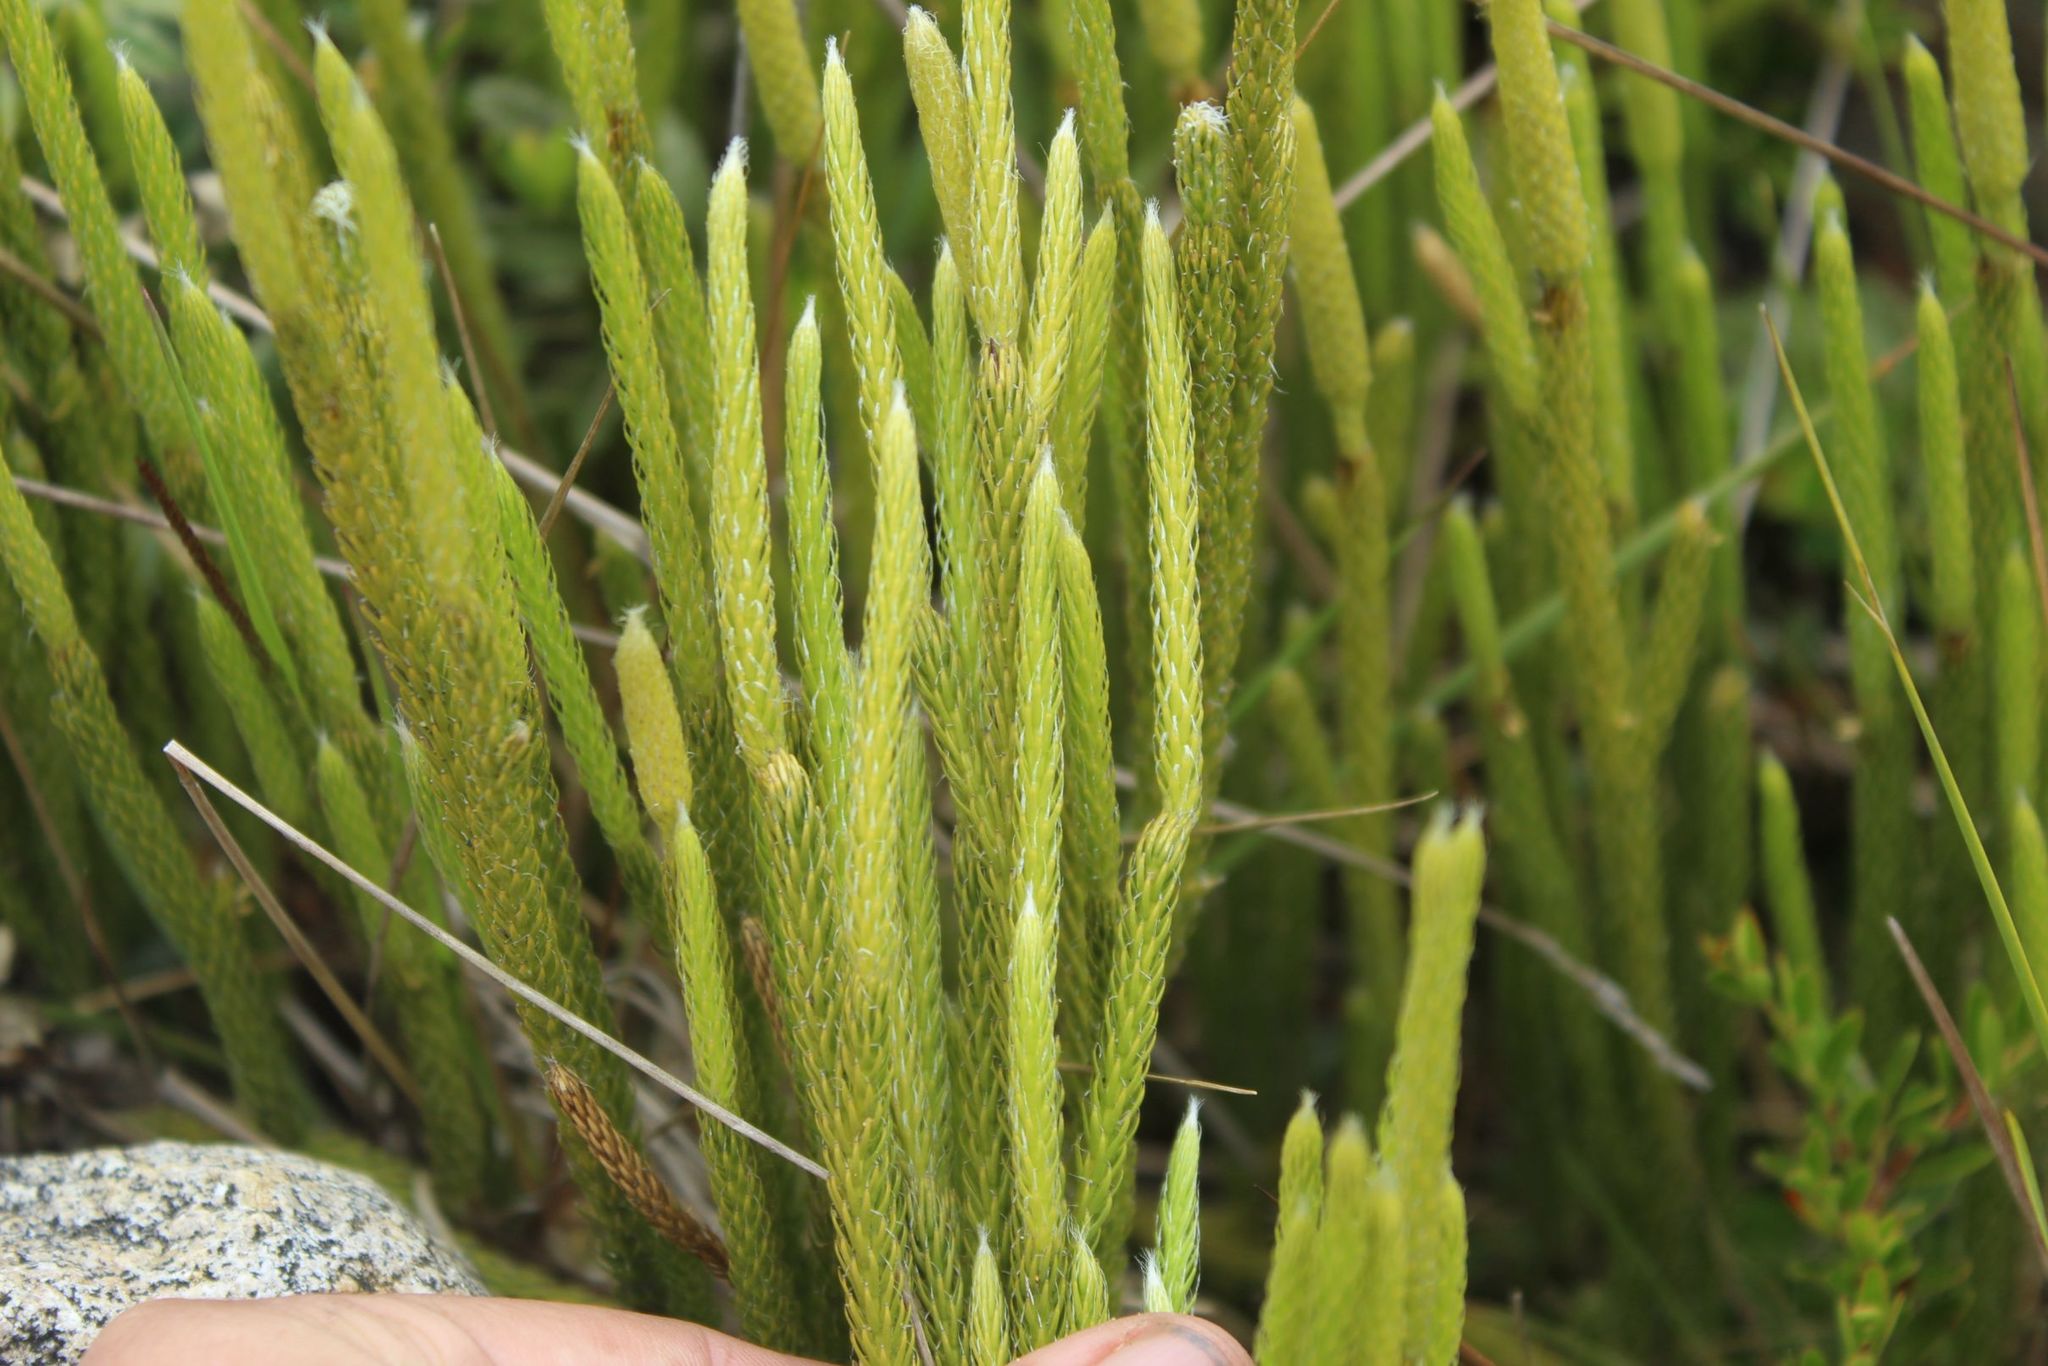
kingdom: Plantae
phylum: Tracheophyta
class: Lycopodiopsida
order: Lycopodiales
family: Lycopodiaceae
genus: Lycopodium
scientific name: Lycopodium clavatum
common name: Stag's-horn clubmoss
